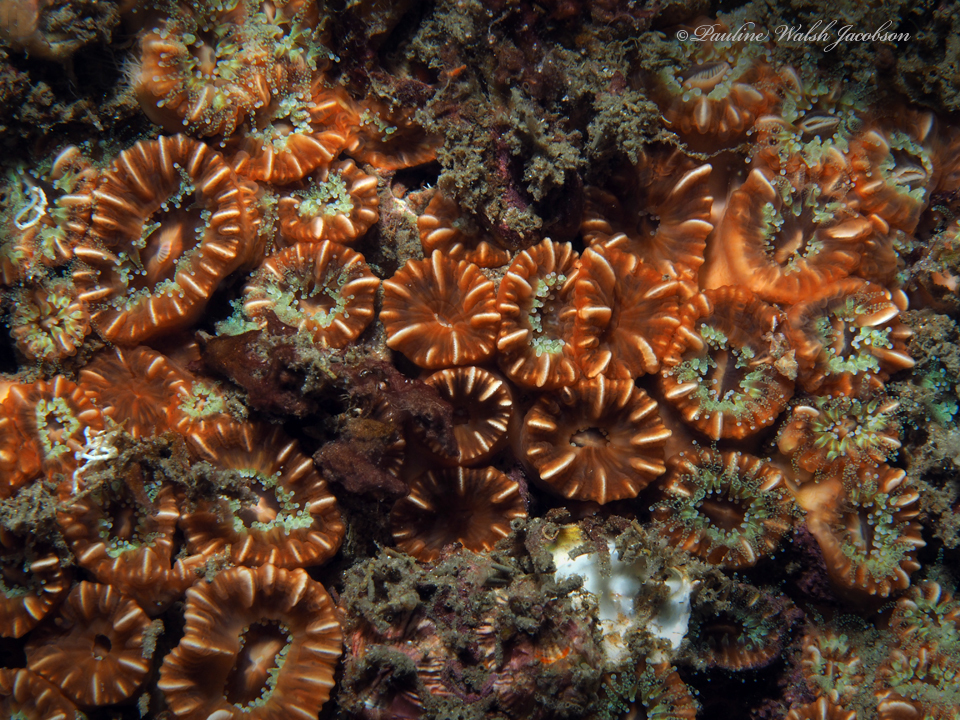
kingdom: Animalia
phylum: Cnidaria
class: Anthozoa
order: Scleractinia
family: Caryophylliidae
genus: Phyllangia
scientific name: Phyllangia americana
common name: Hidden cup coral
